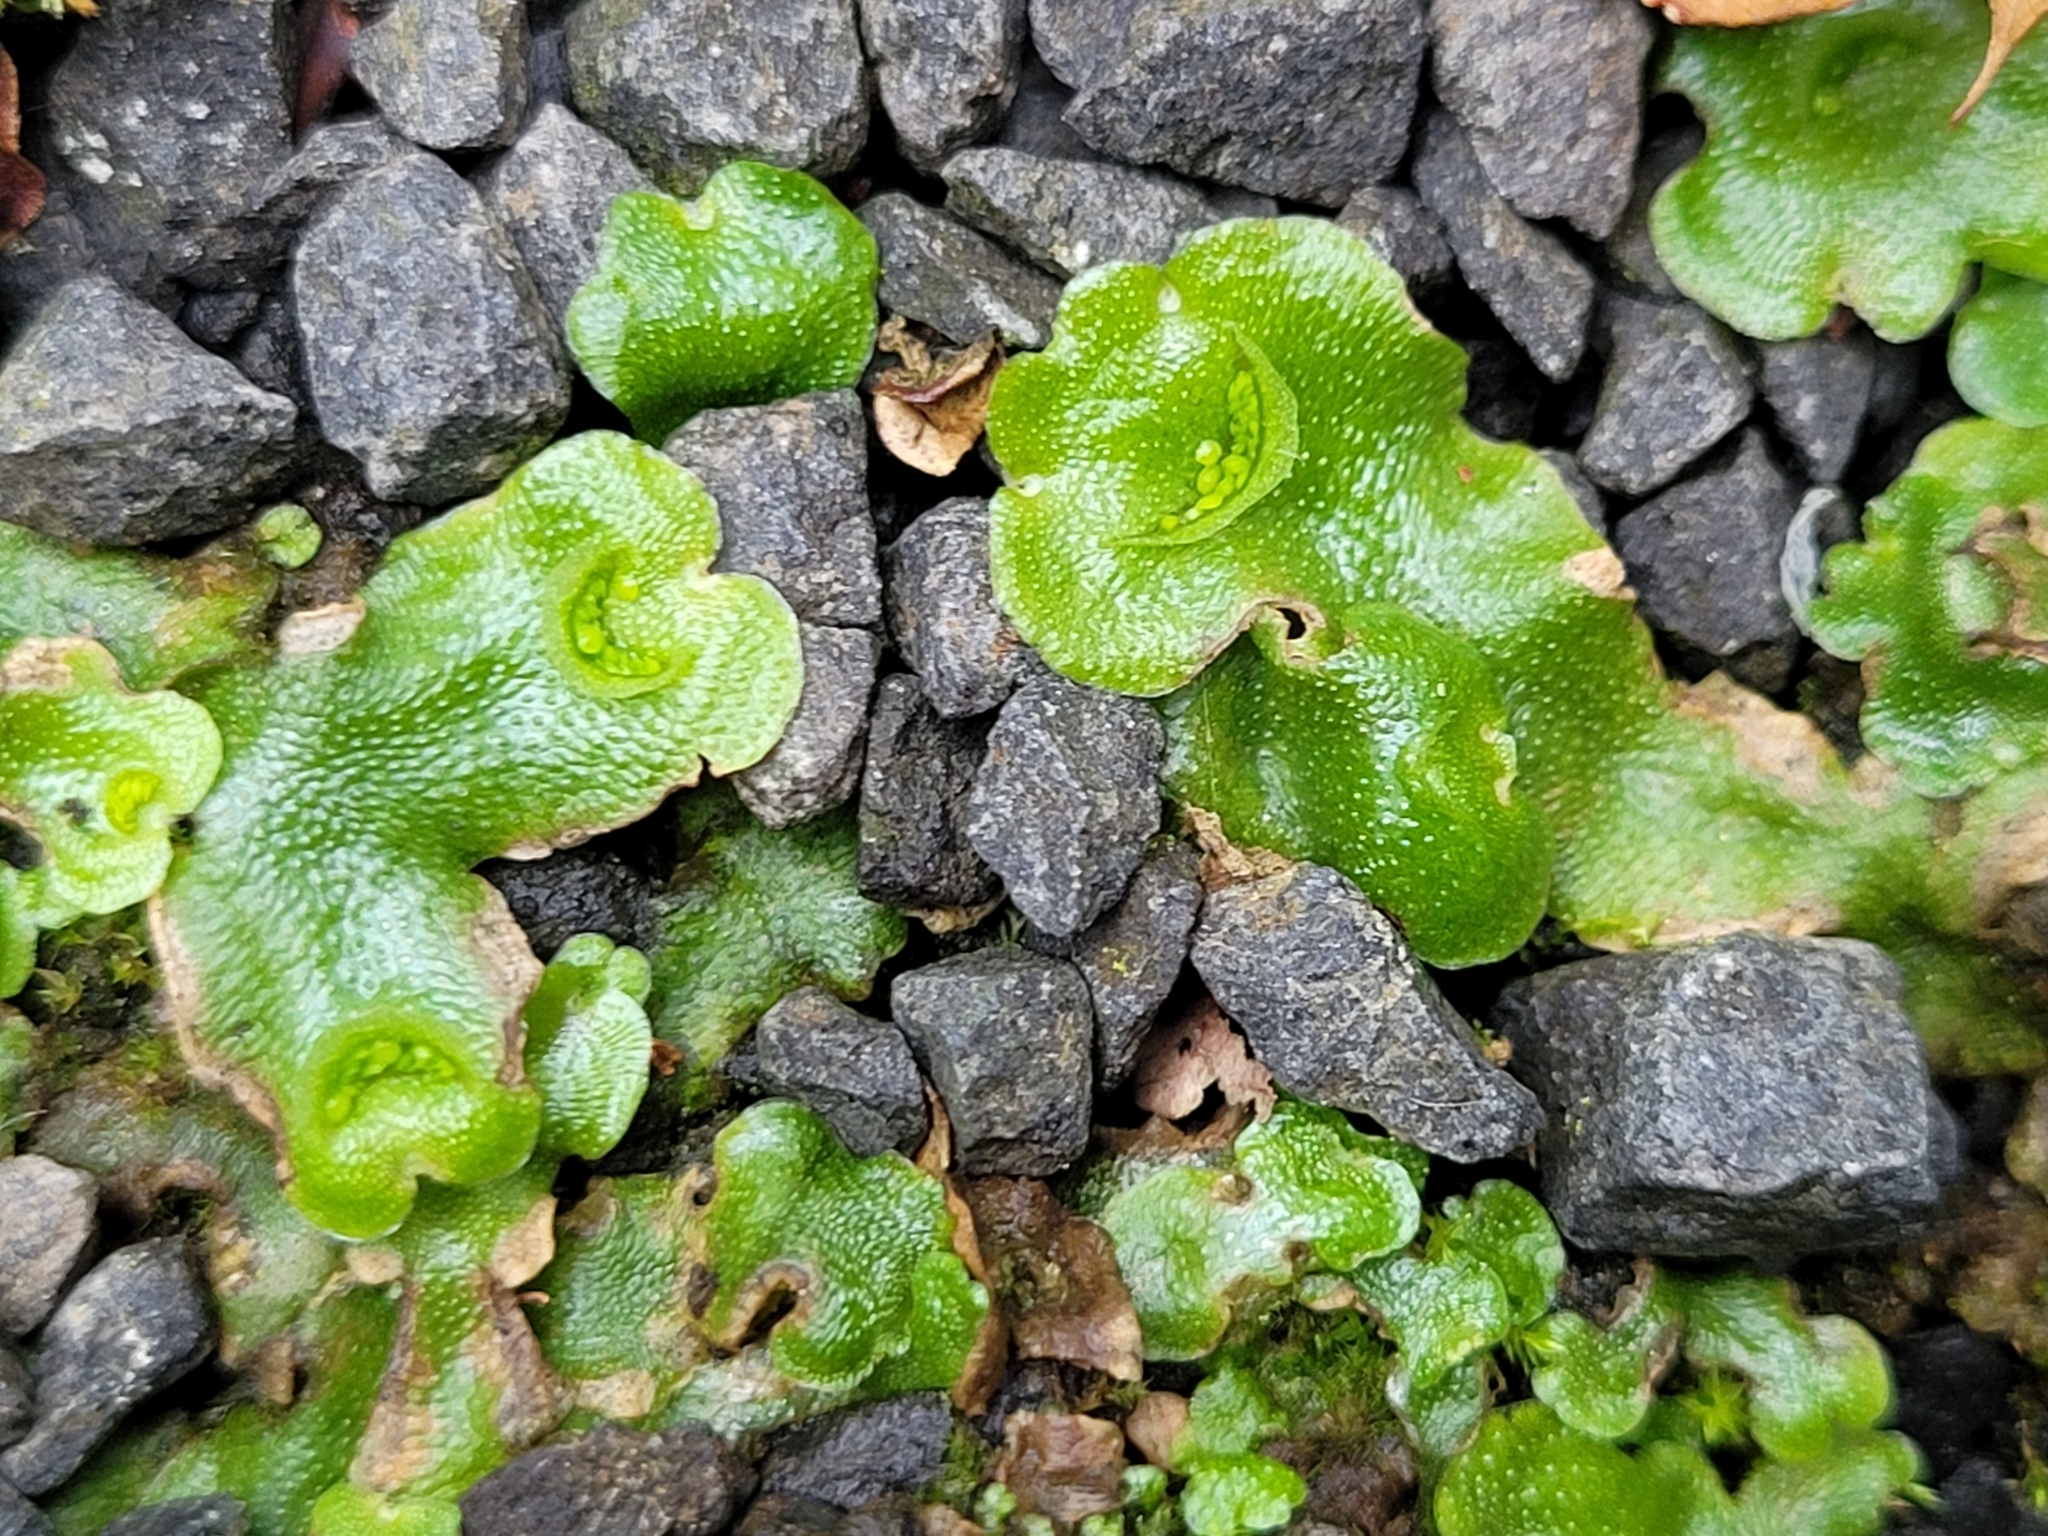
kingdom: Plantae
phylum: Marchantiophyta
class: Marchantiopsida
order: Lunulariales
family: Lunulariaceae
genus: Lunularia
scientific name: Lunularia cruciata
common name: Crescent-cup liverwort
